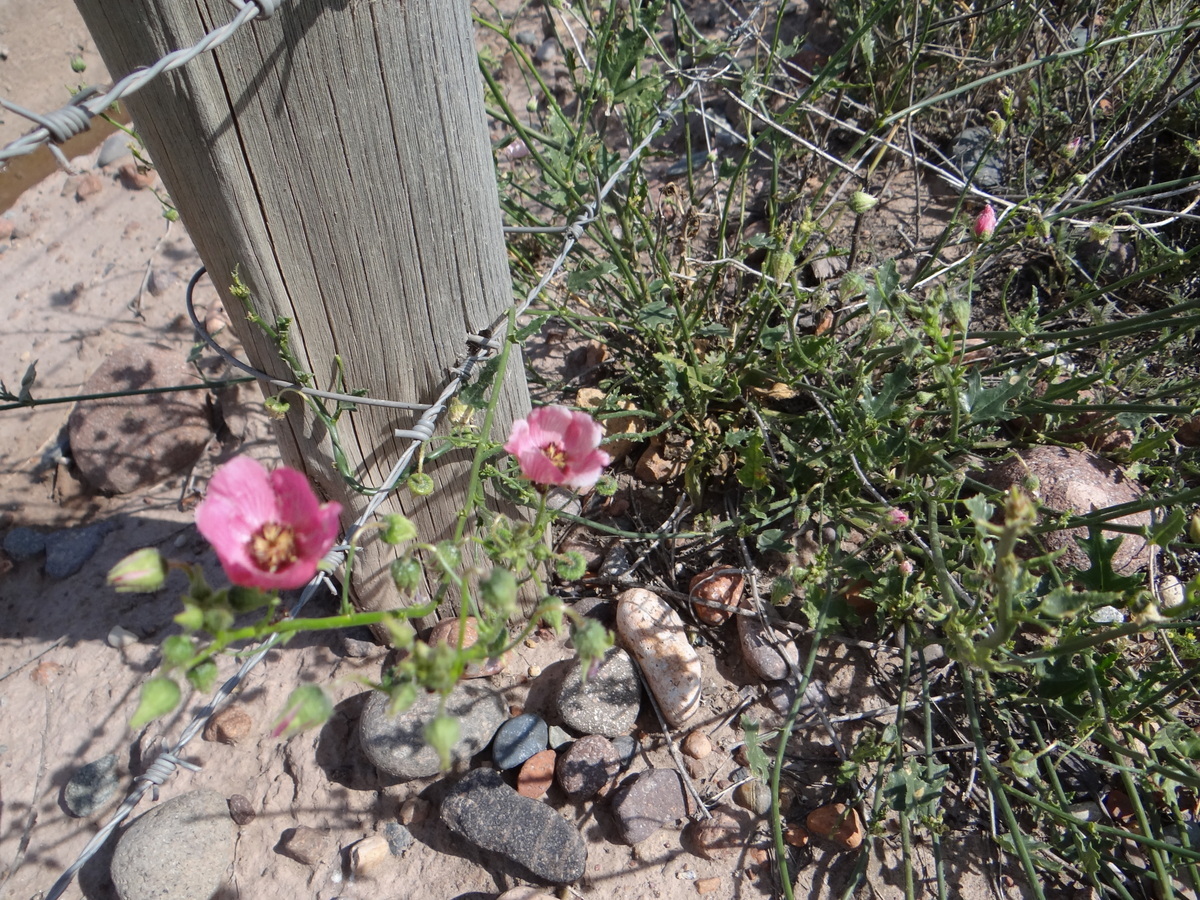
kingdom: Plantae
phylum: Tracheophyta
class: Magnoliopsida
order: Malvales
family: Malvaceae
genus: Lecanophora
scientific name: Lecanophora heterophylla
